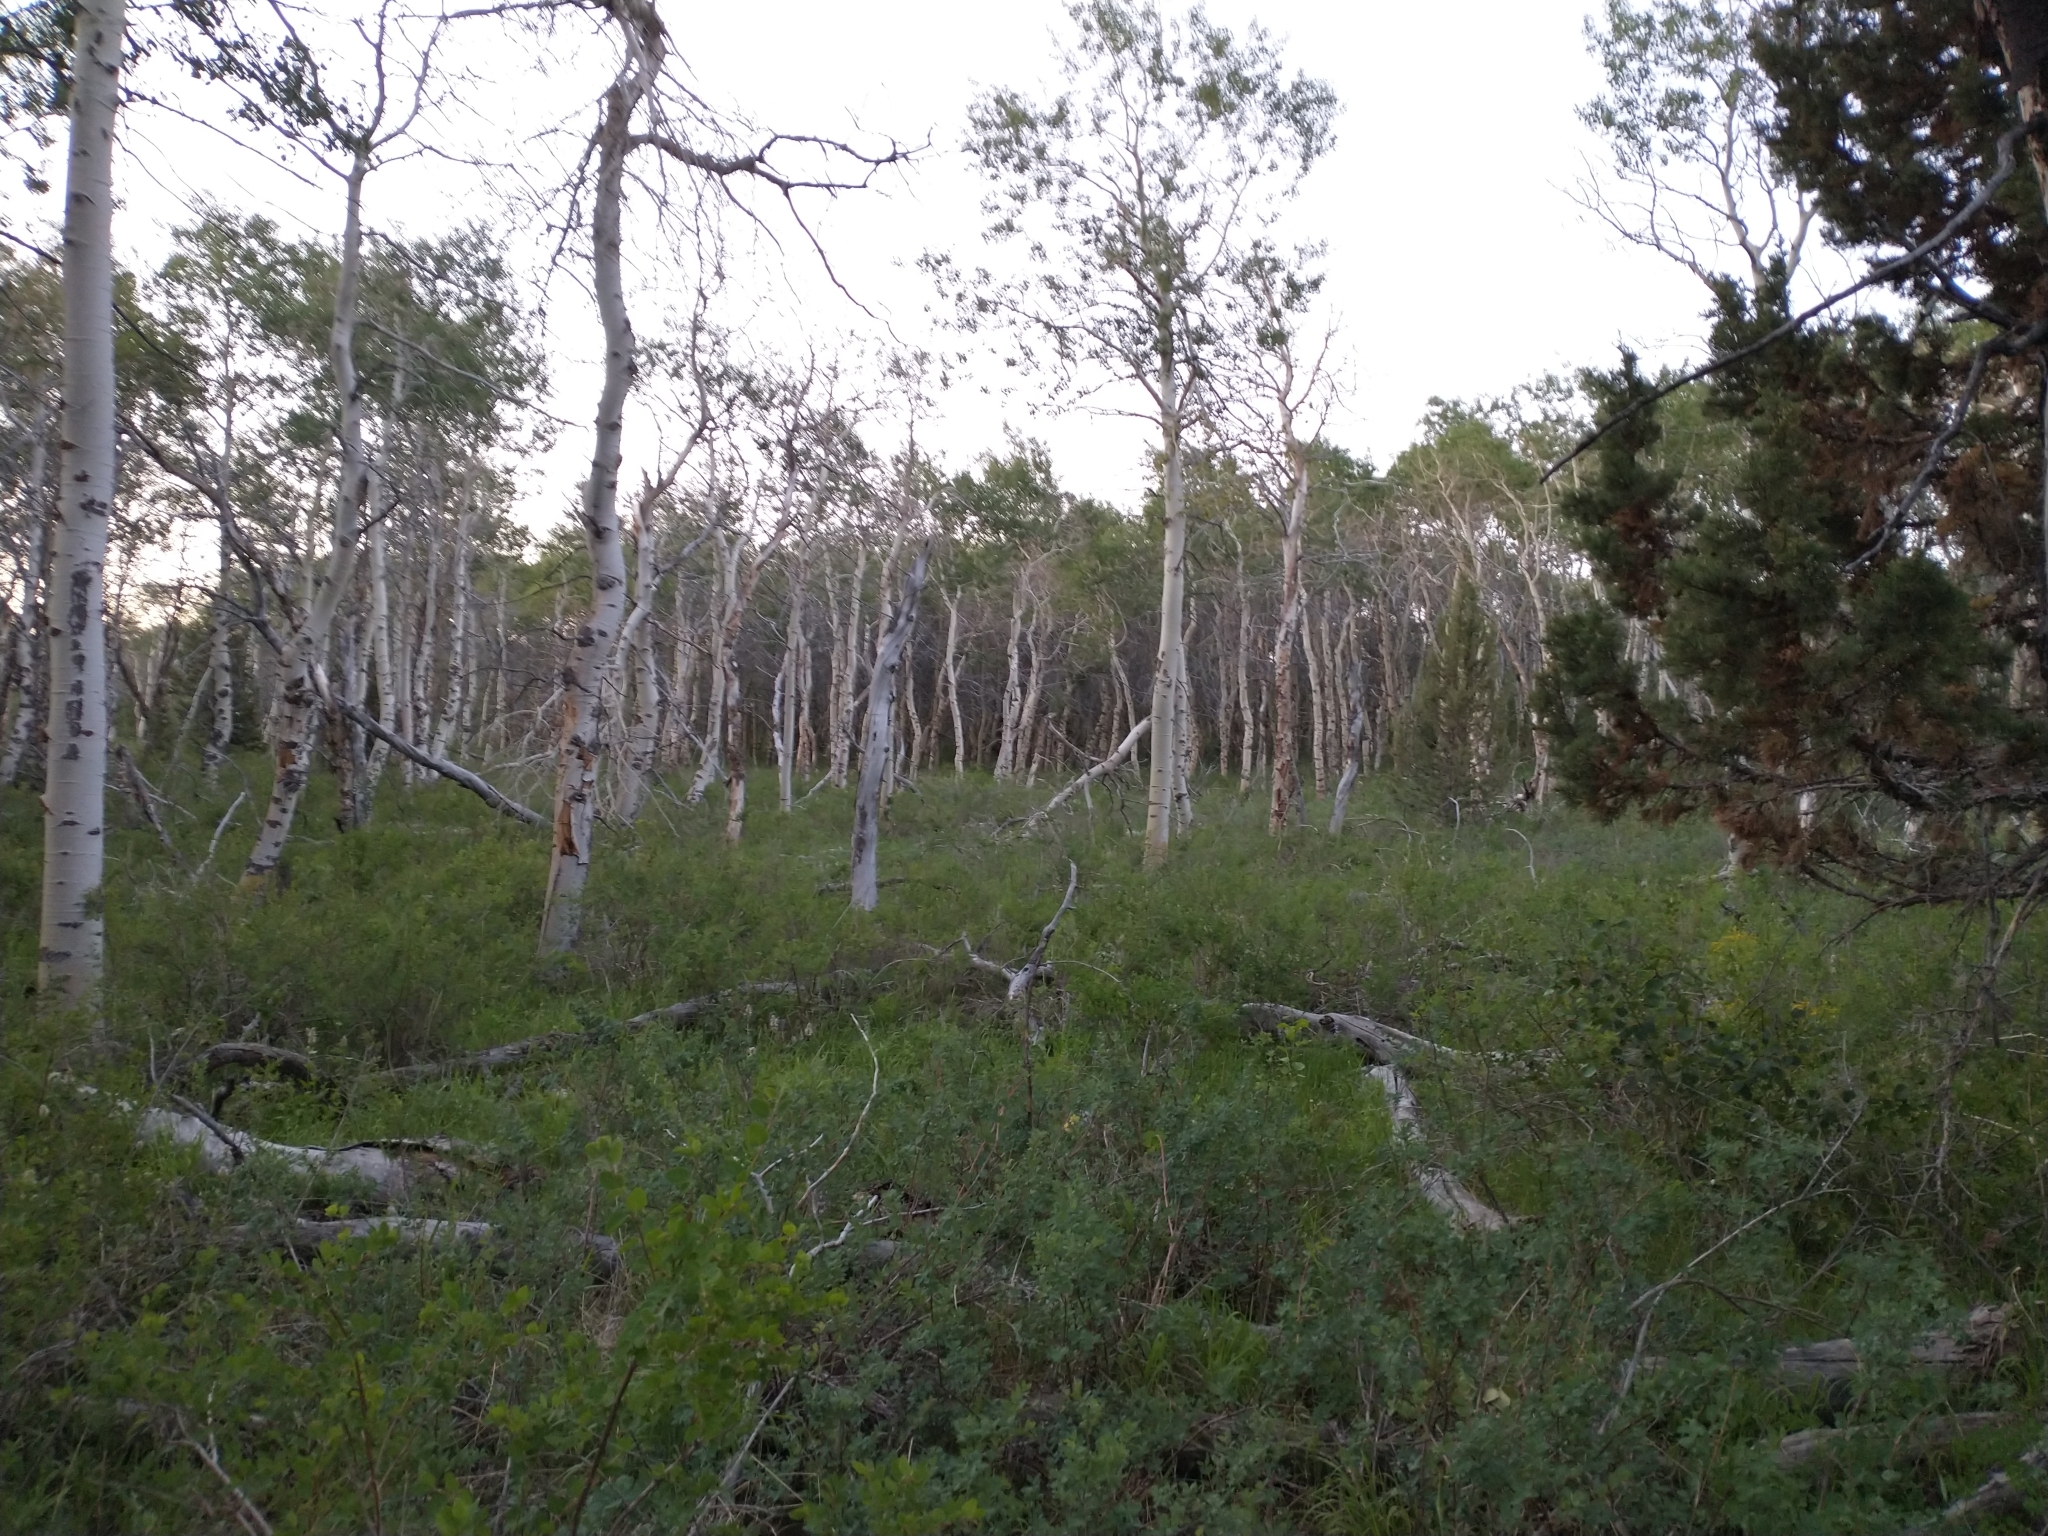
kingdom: Plantae
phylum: Tracheophyta
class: Magnoliopsida
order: Malpighiales
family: Salicaceae
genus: Populus
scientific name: Populus tremuloides
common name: Quaking aspen
